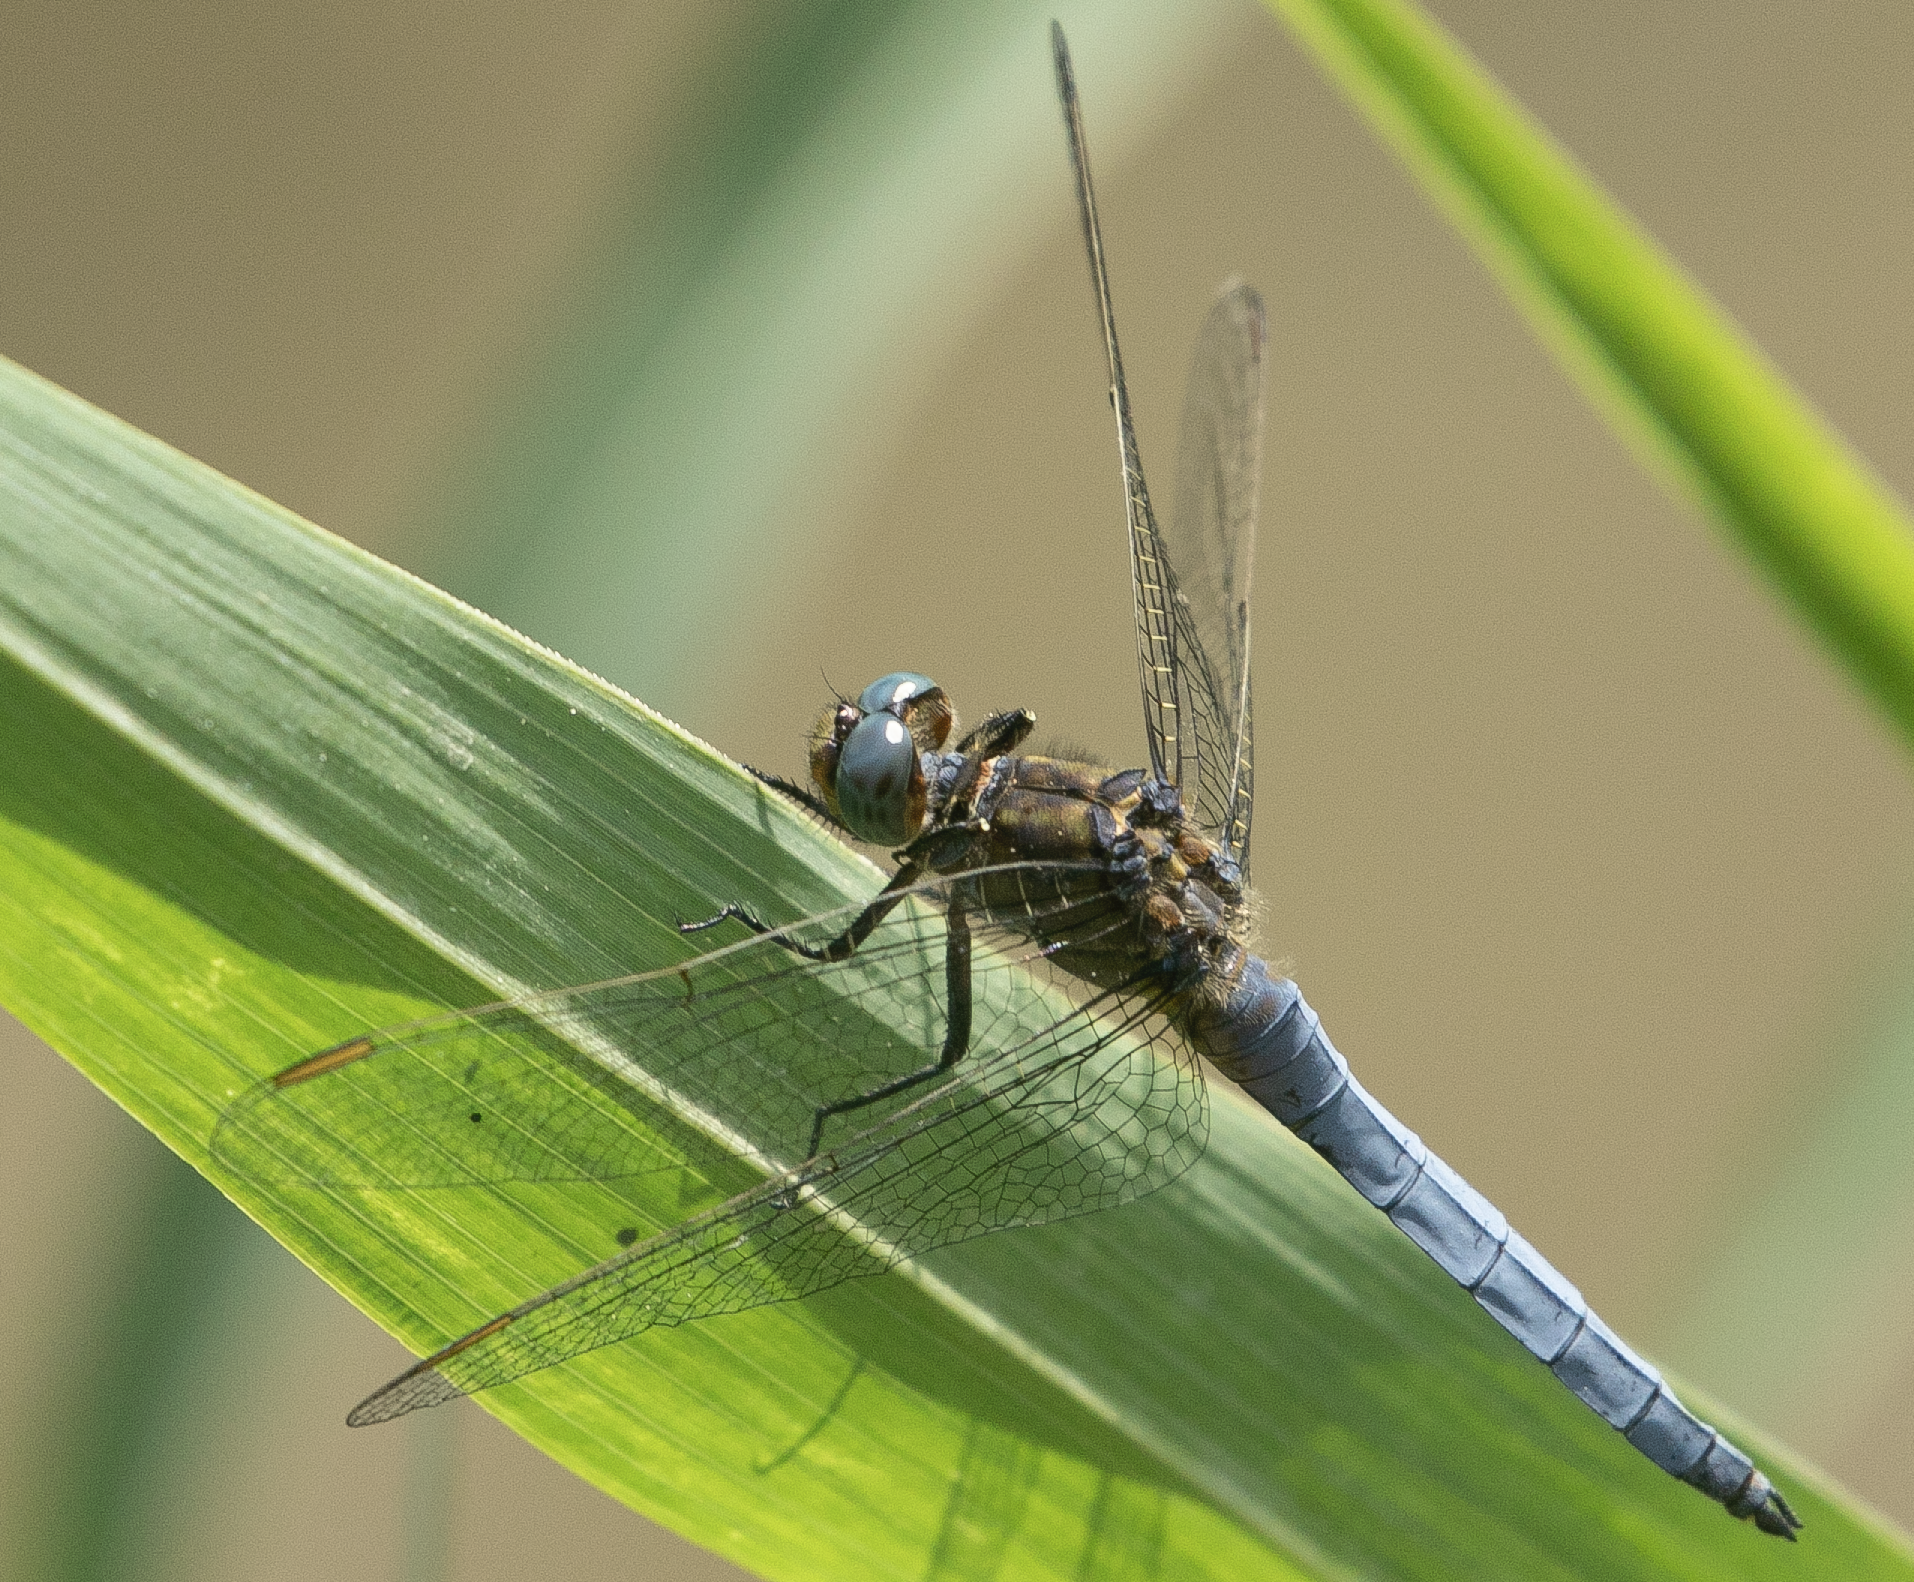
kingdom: Animalia
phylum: Arthropoda
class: Insecta
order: Odonata
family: Libellulidae
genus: Orthetrum
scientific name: Orthetrum coerulescens
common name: Keeled skimmer
